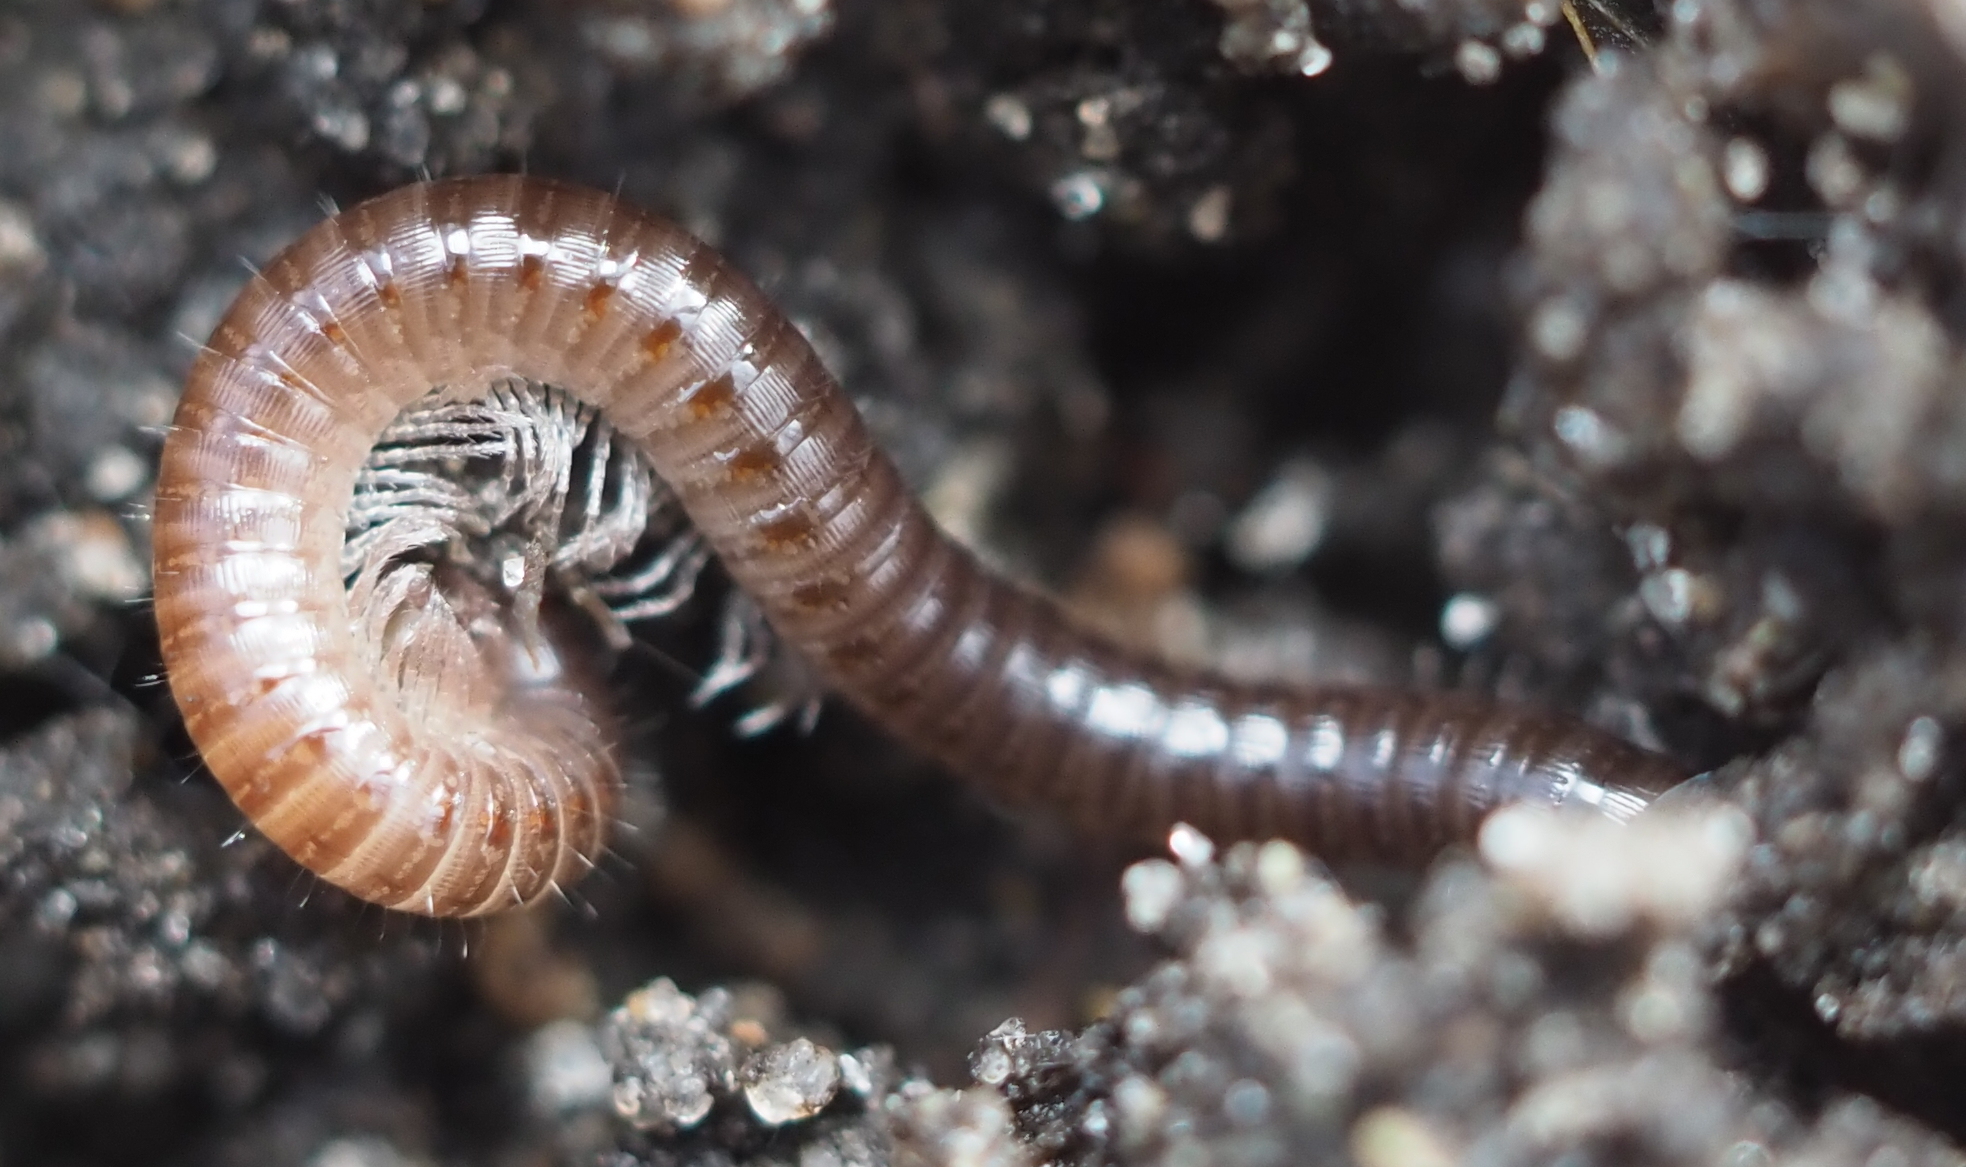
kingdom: Animalia
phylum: Arthropoda
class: Diplopoda
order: Julida
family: Julidae
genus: Ophyiulus
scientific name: Ophyiulus pilosus
